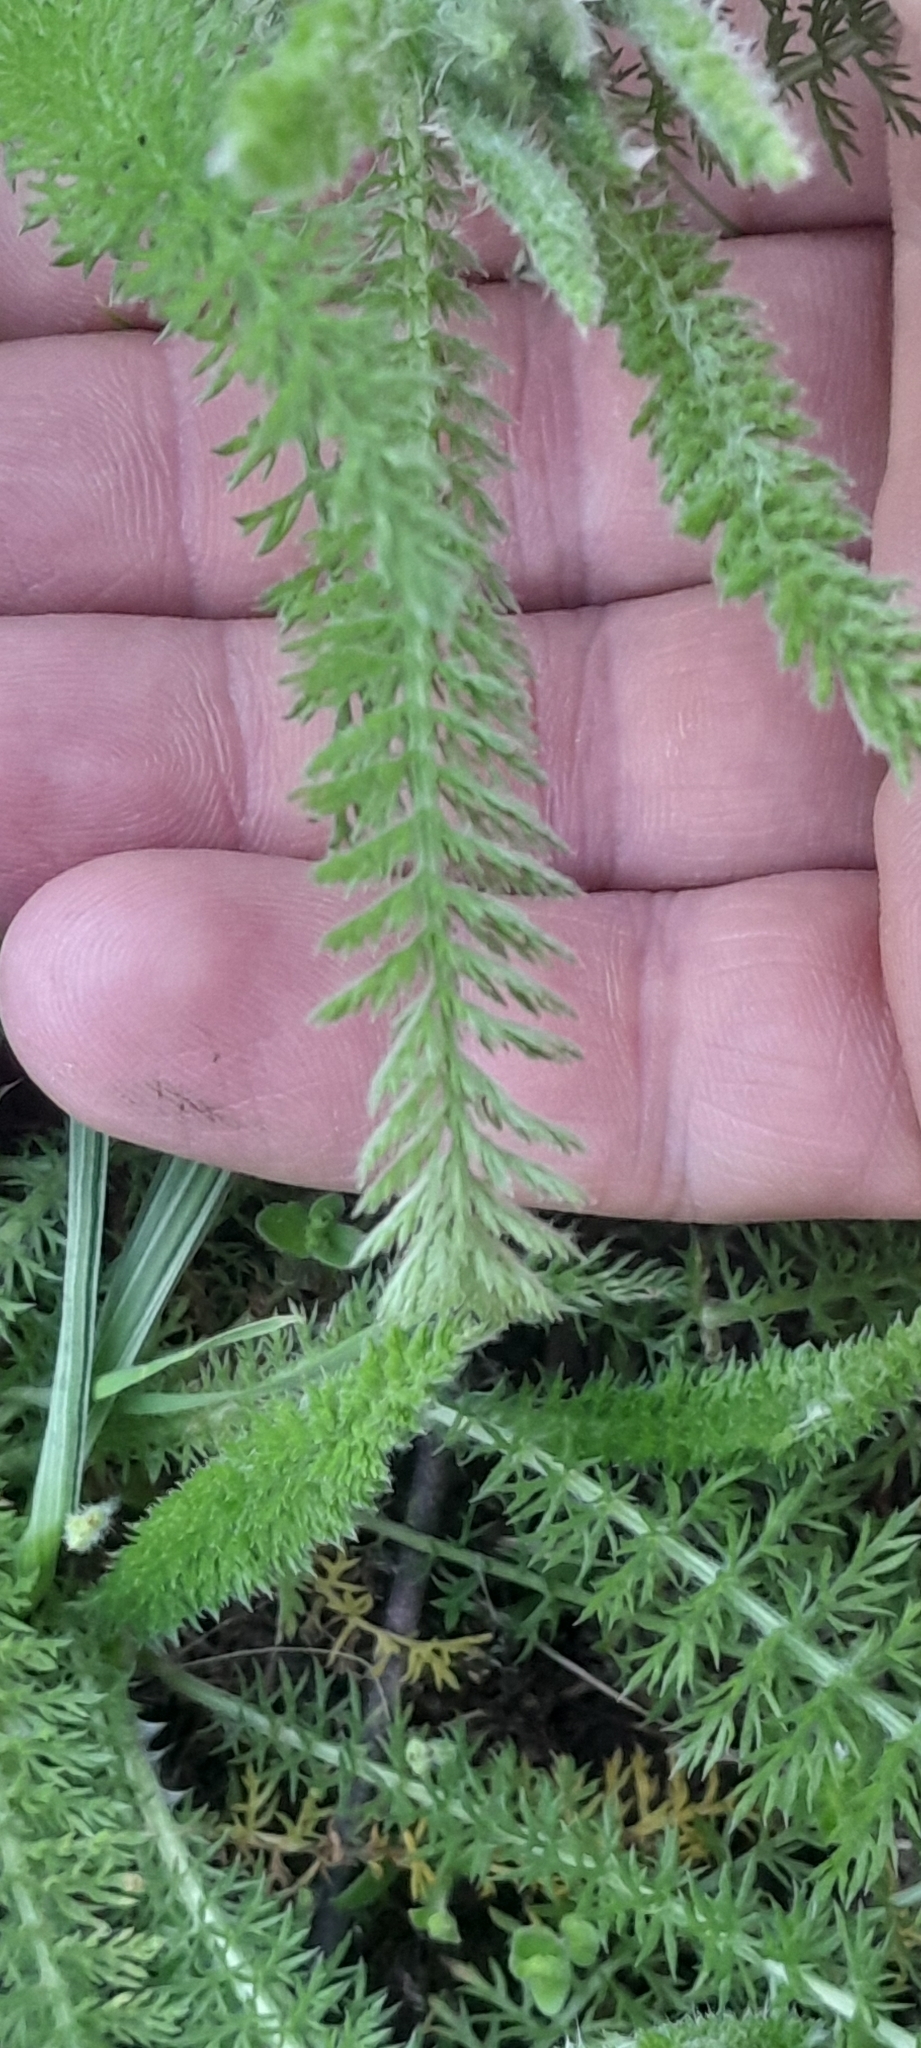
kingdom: Plantae
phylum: Tracheophyta
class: Magnoliopsida
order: Asterales
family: Asteraceae
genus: Achillea
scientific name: Achillea millefolium
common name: Yarrow
